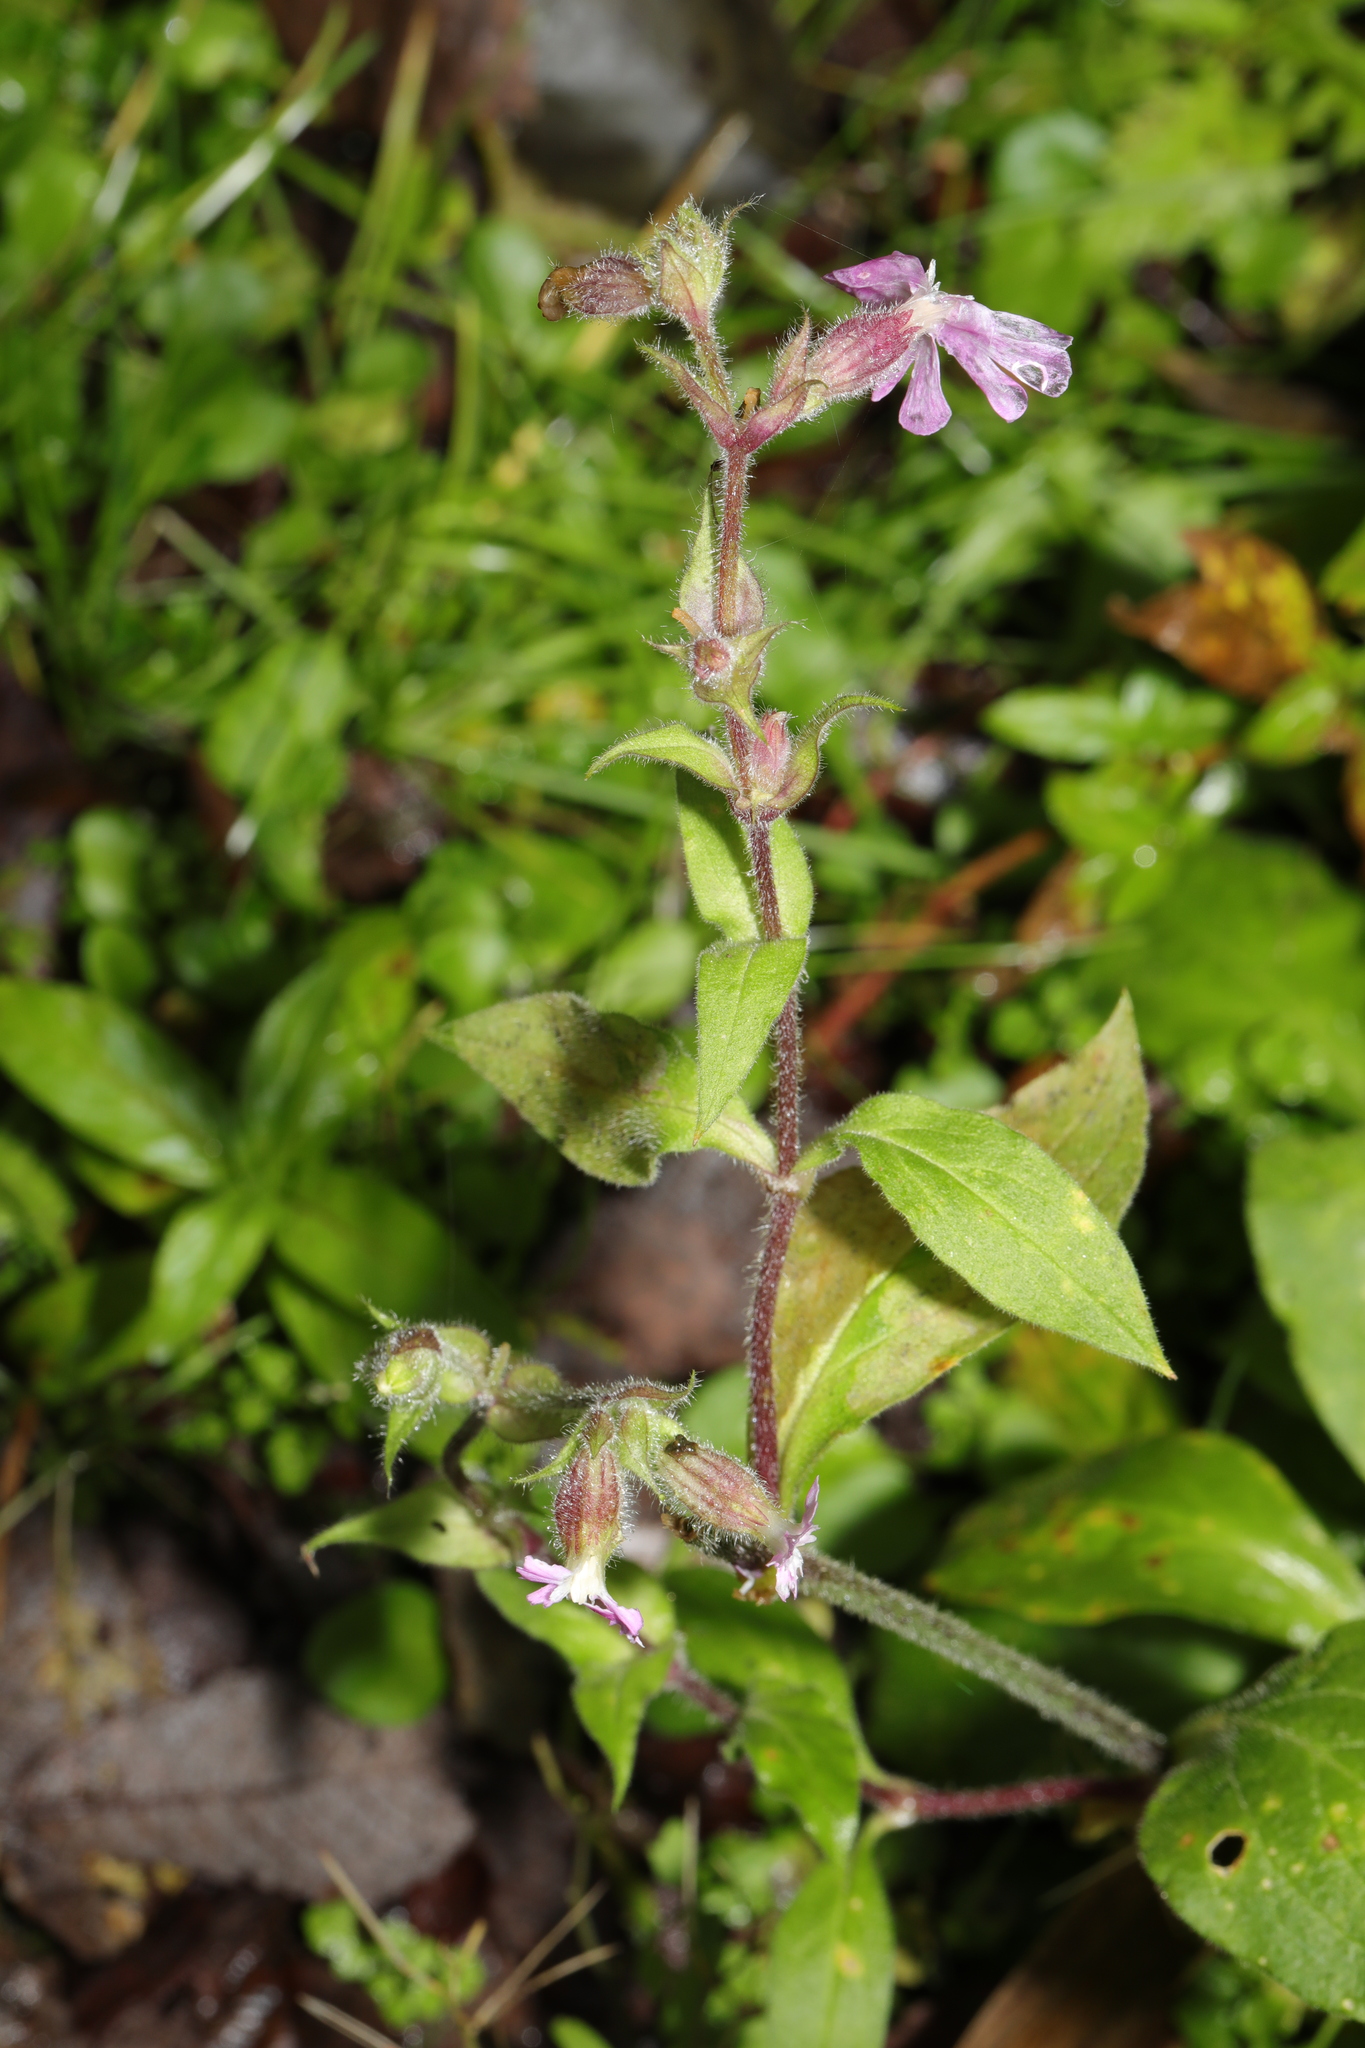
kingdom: Plantae
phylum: Tracheophyta
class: Magnoliopsida
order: Caryophyllales
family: Caryophyllaceae
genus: Silene
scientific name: Silene dioica
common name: Red campion
